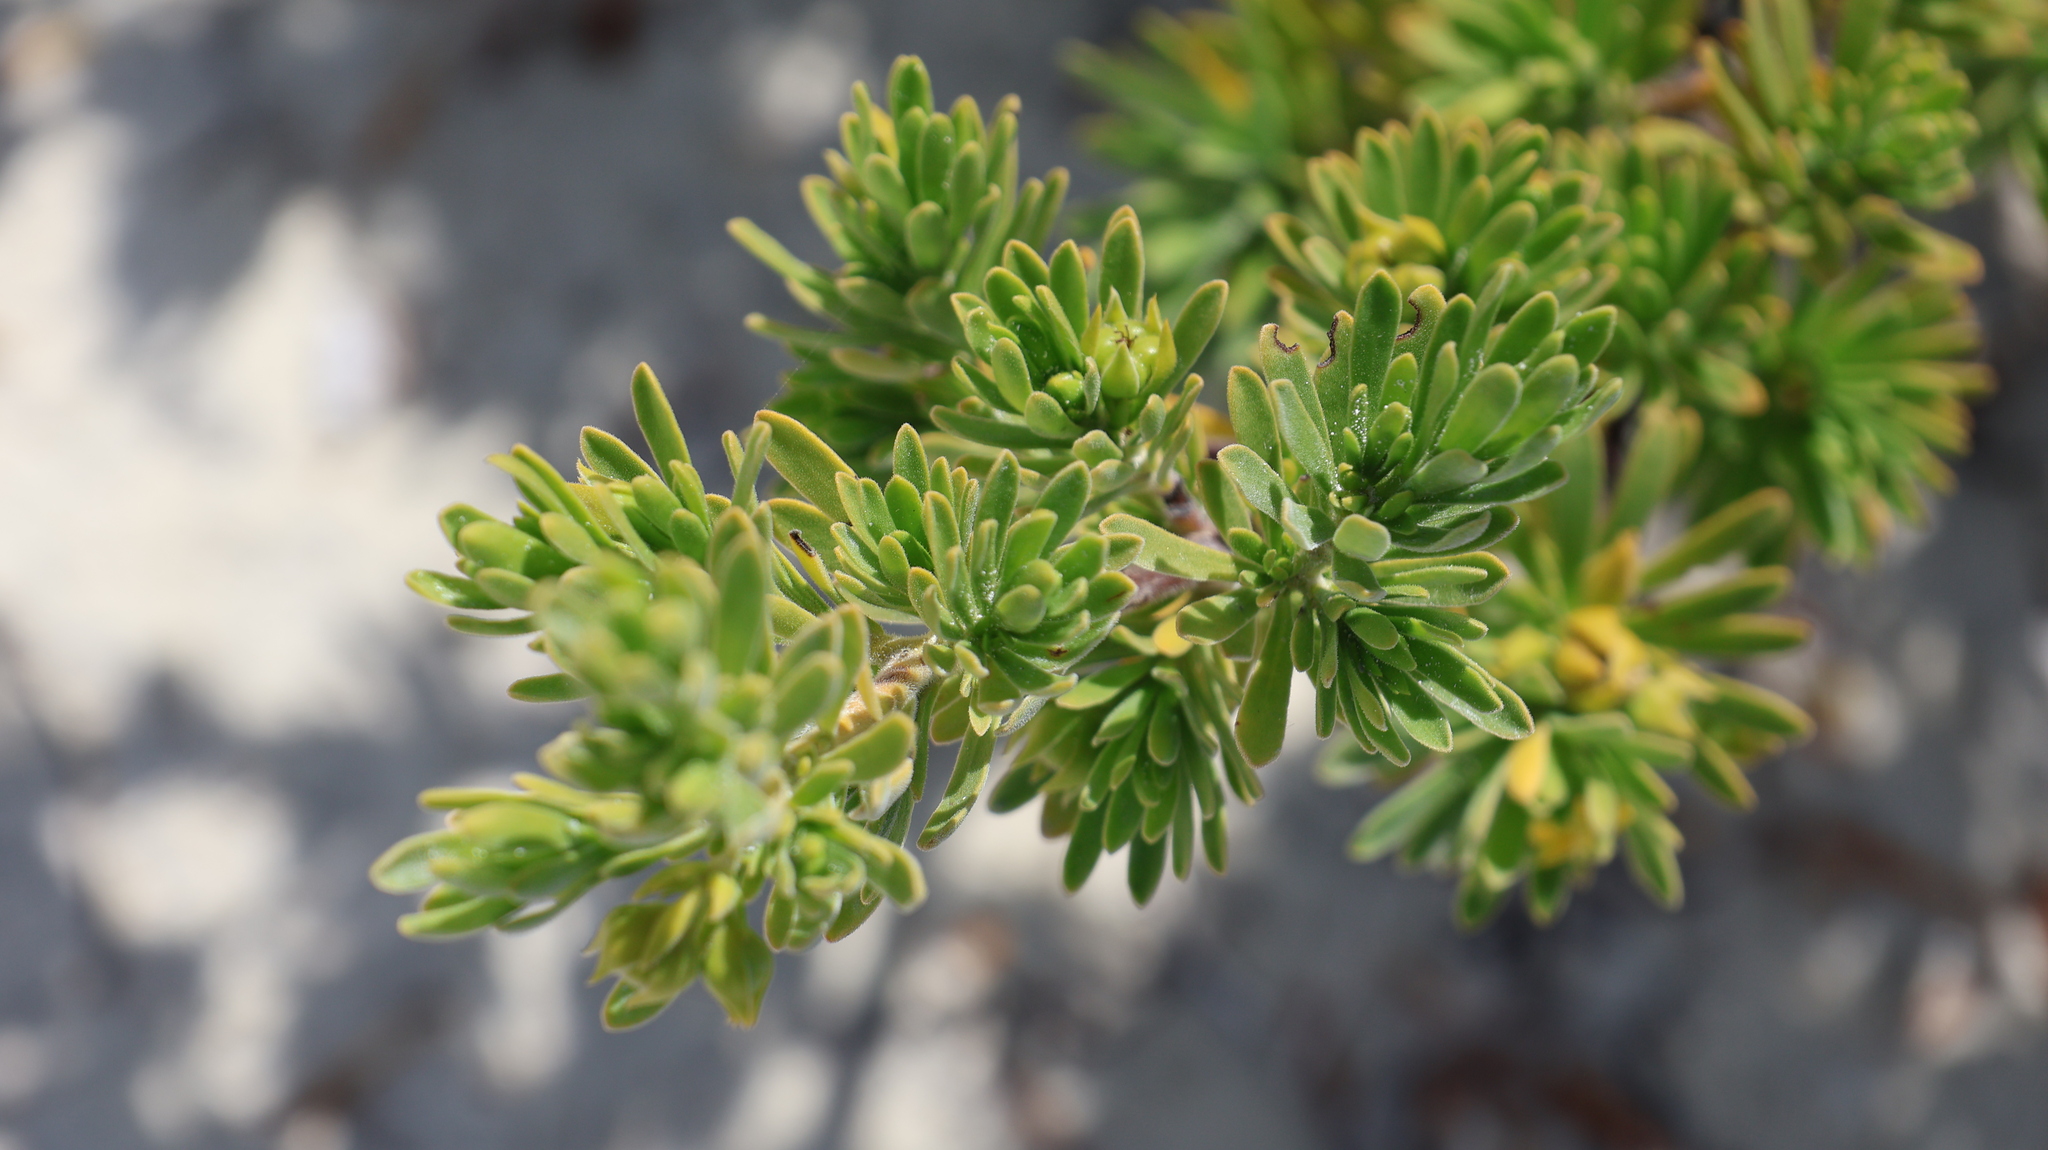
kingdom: Plantae
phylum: Tracheophyta
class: Magnoliopsida
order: Fabales
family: Surianaceae
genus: Suriana
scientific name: Suriana maritima
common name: Bay-cedar
